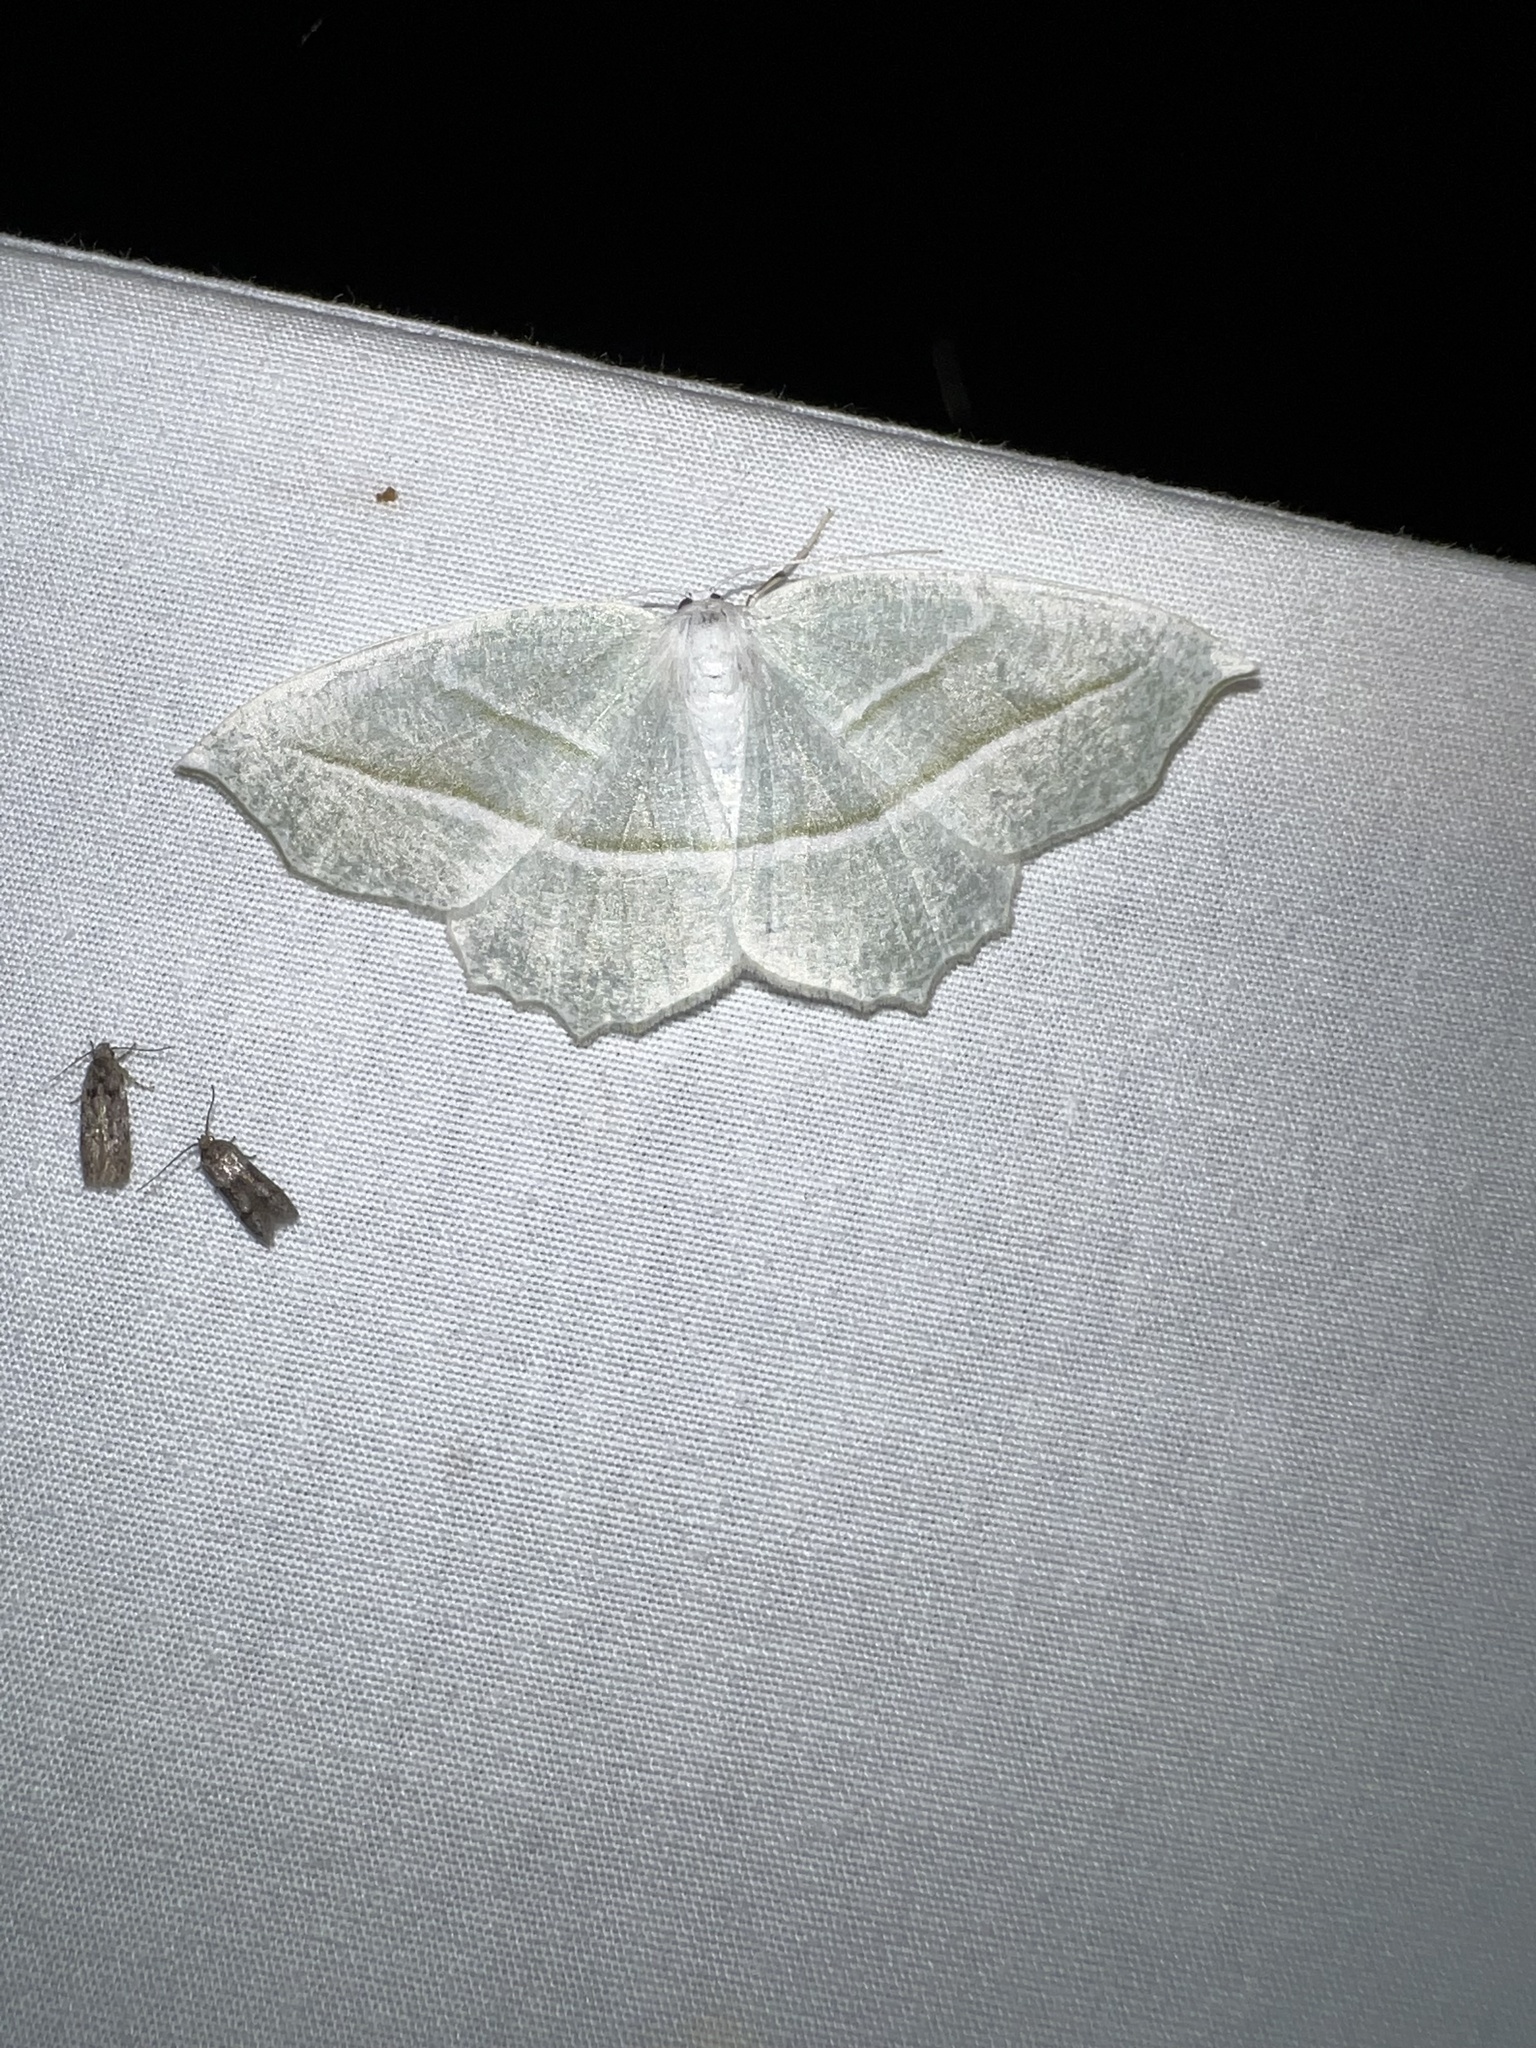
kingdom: Animalia
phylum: Arthropoda
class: Insecta
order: Lepidoptera
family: Geometridae
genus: Campaea
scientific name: Campaea perlata
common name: Fringed looper
